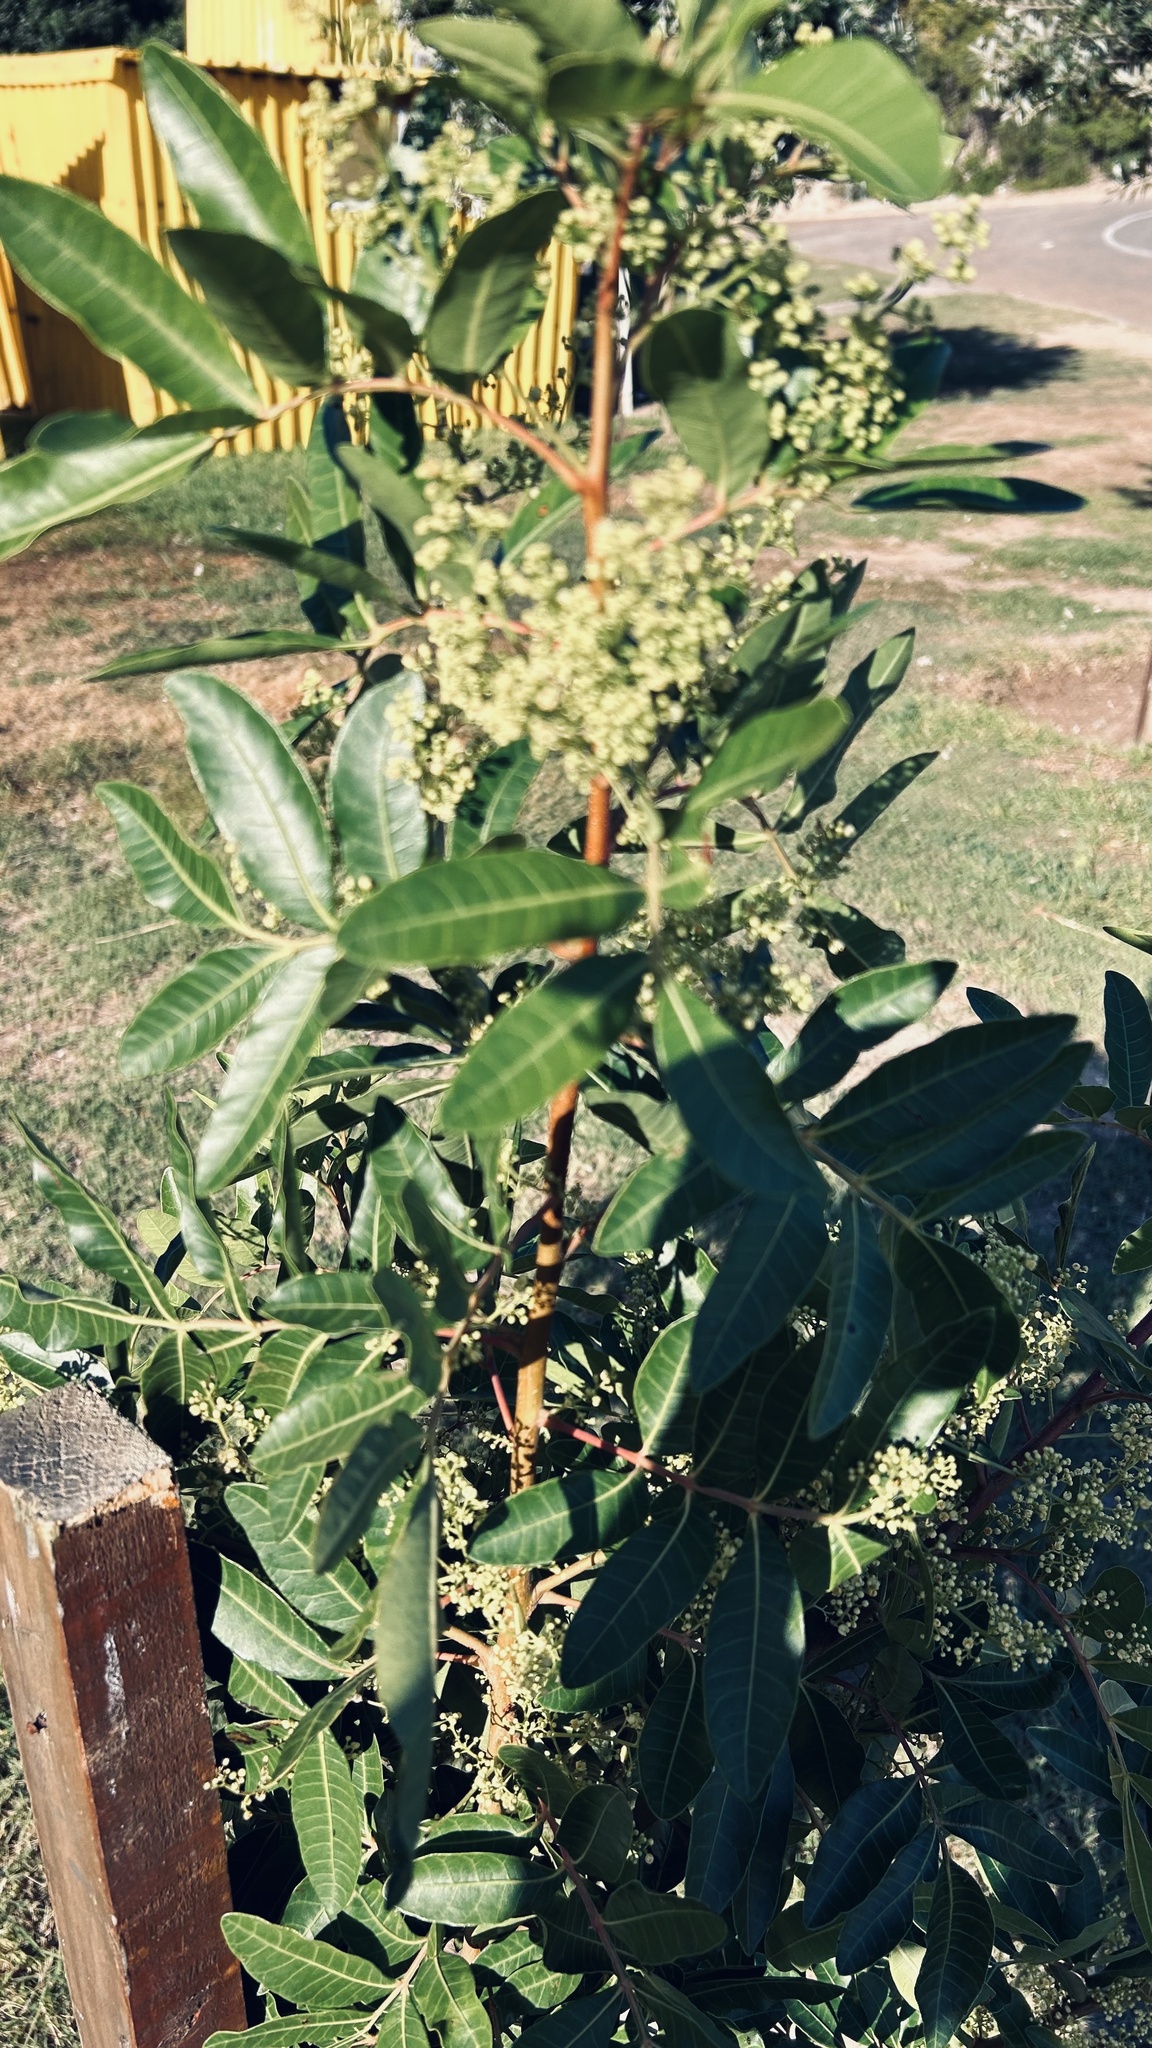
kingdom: Plantae
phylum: Tracheophyta
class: Magnoliopsida
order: Sapindales
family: Anacardiaceae
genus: Schinus
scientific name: Schinus terebinthifolia
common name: Brazilian peppertree
